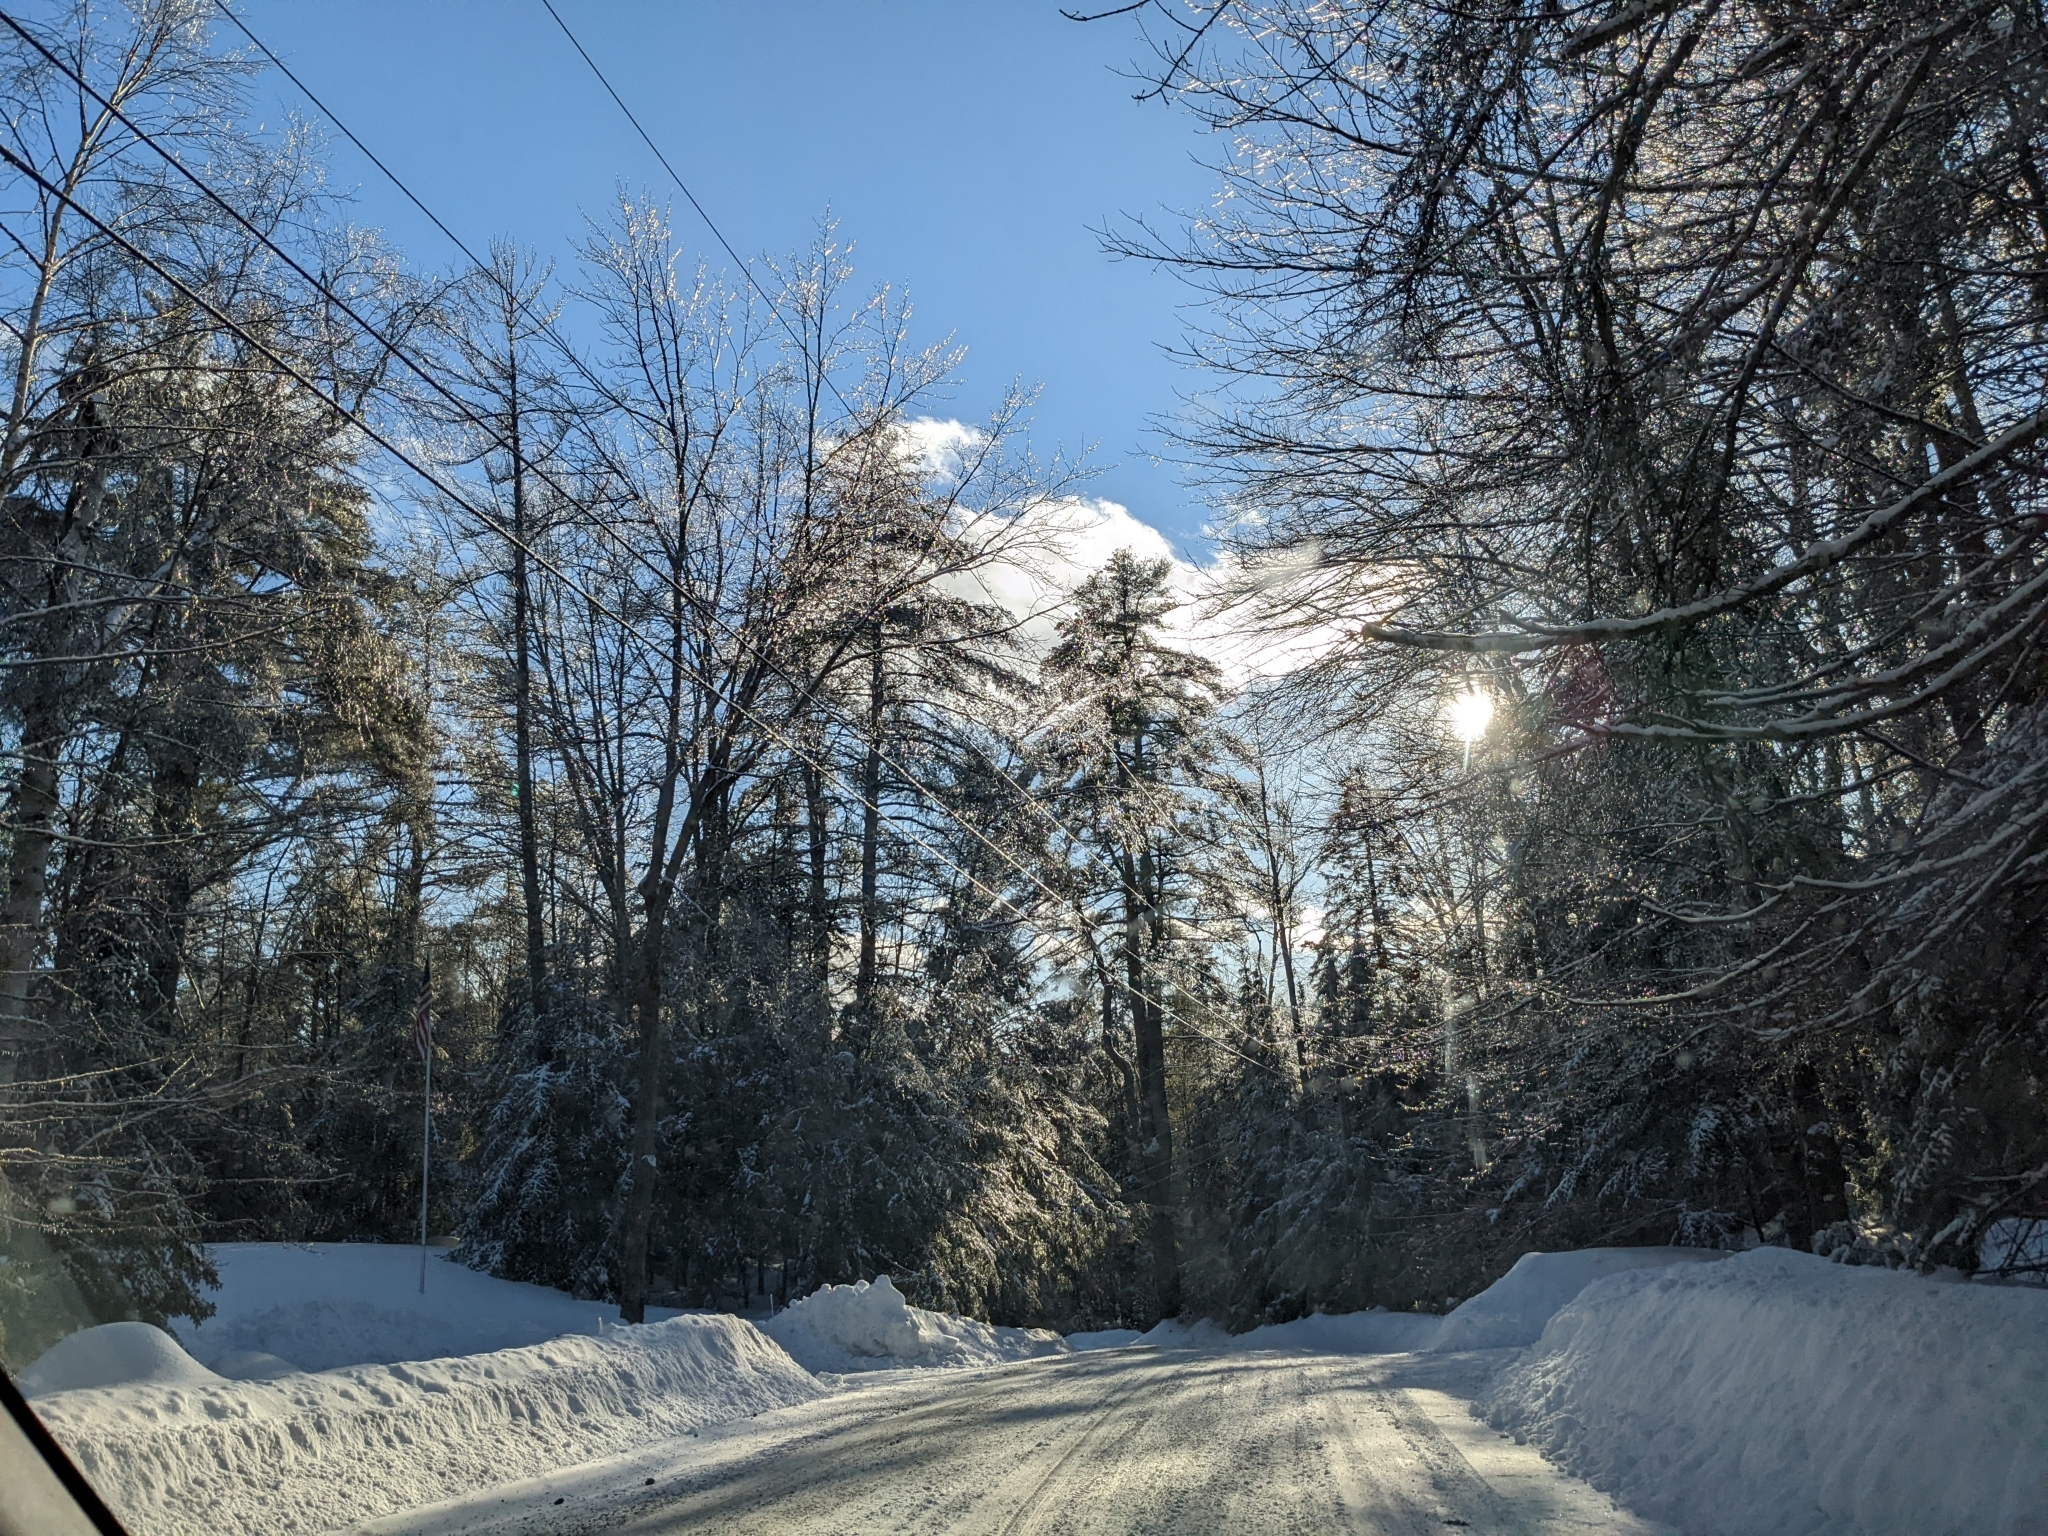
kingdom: Plantae
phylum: Tracheophyta
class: Pinopsida
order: Pinales
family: Pinaceae
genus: Pinus
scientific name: Pinus strobus
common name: Weymouth pine
